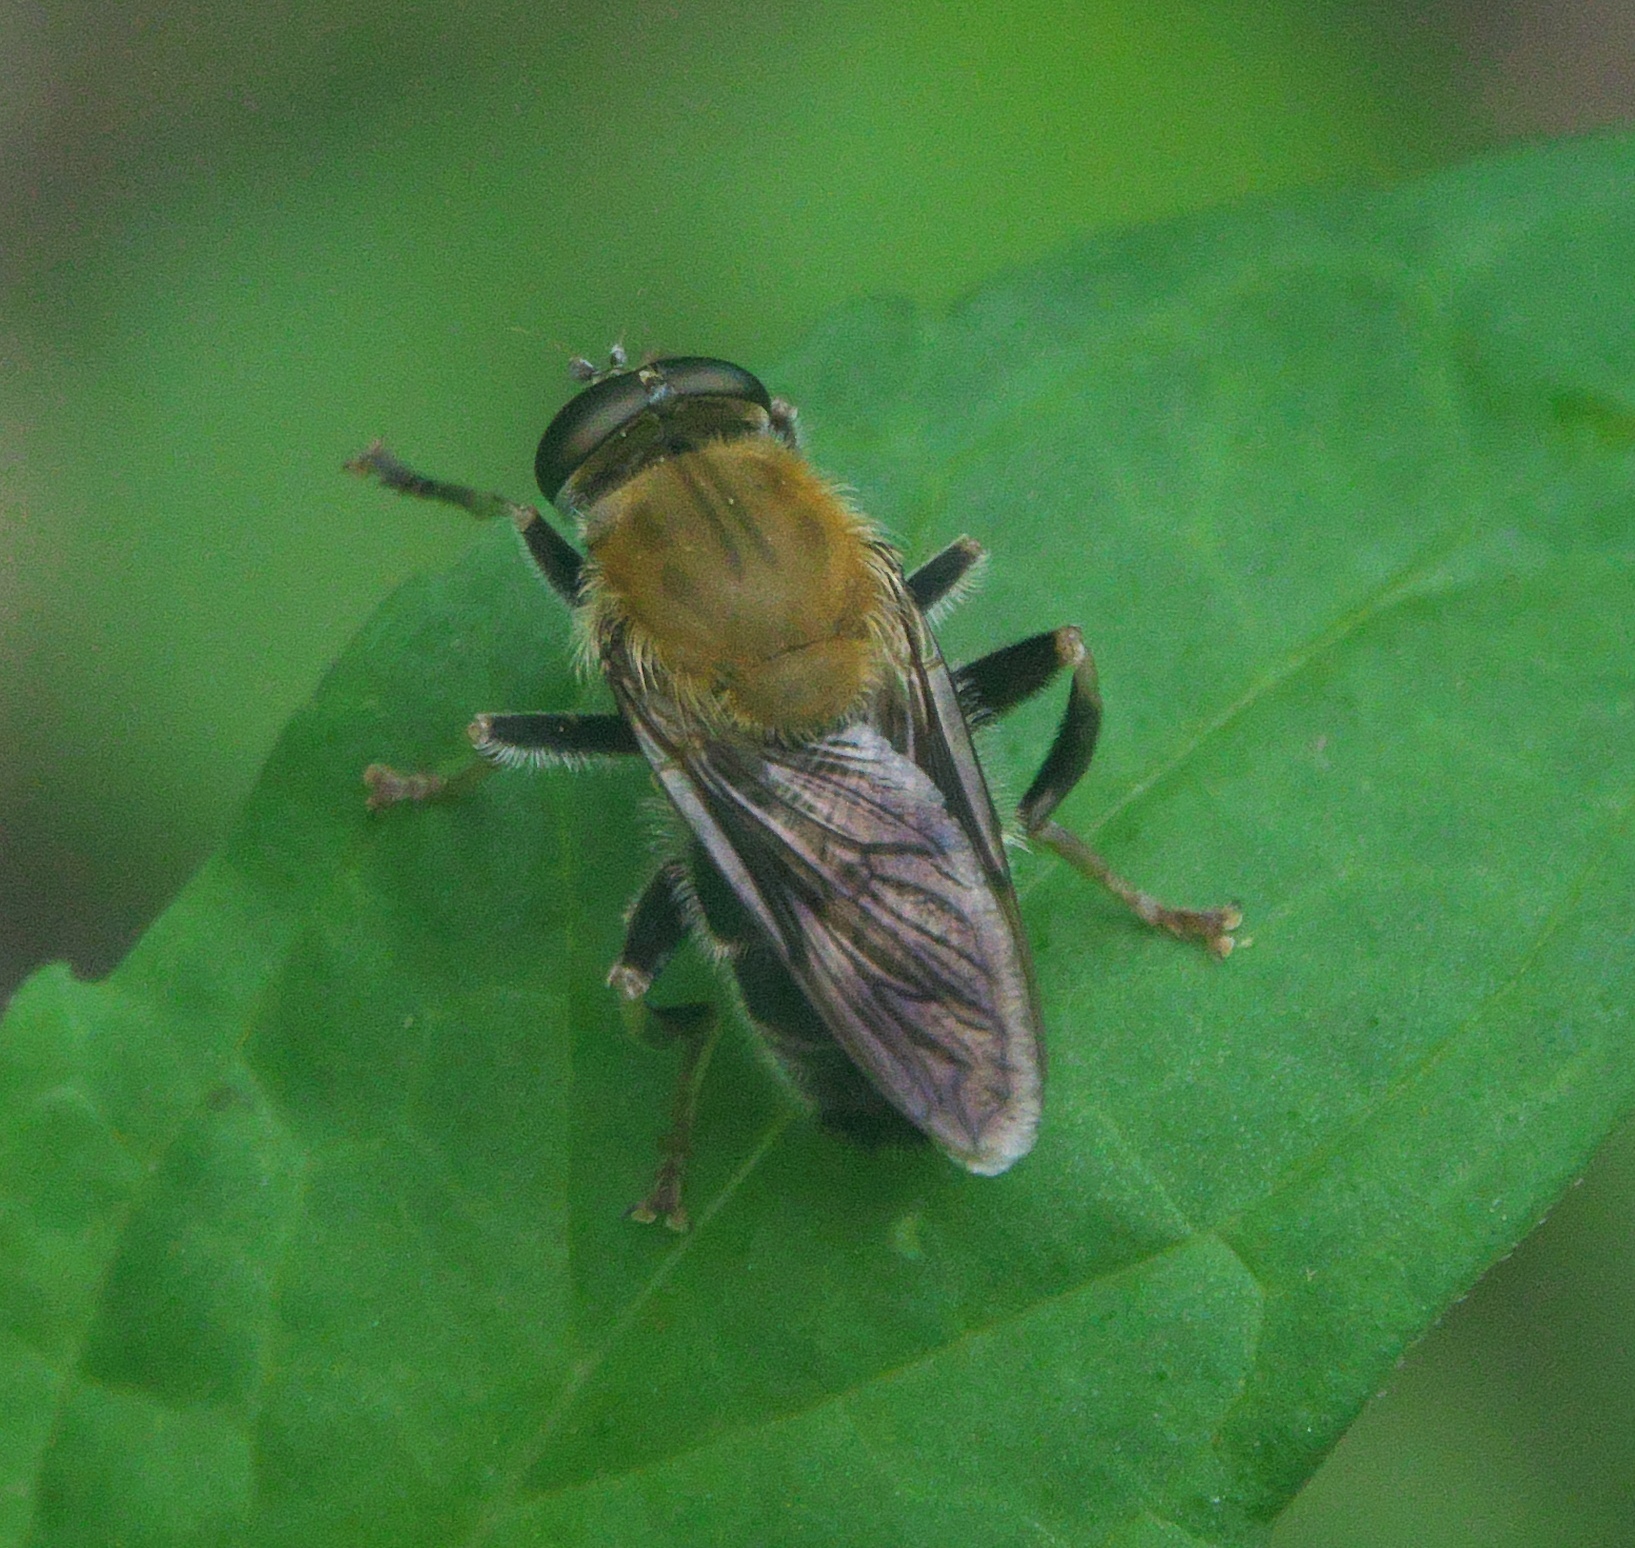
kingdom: Animalia
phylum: Arthropoda
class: Insecta
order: Diptera
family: Syrphidae
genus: Pterallastes
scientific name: Pterallastes thoracicus
